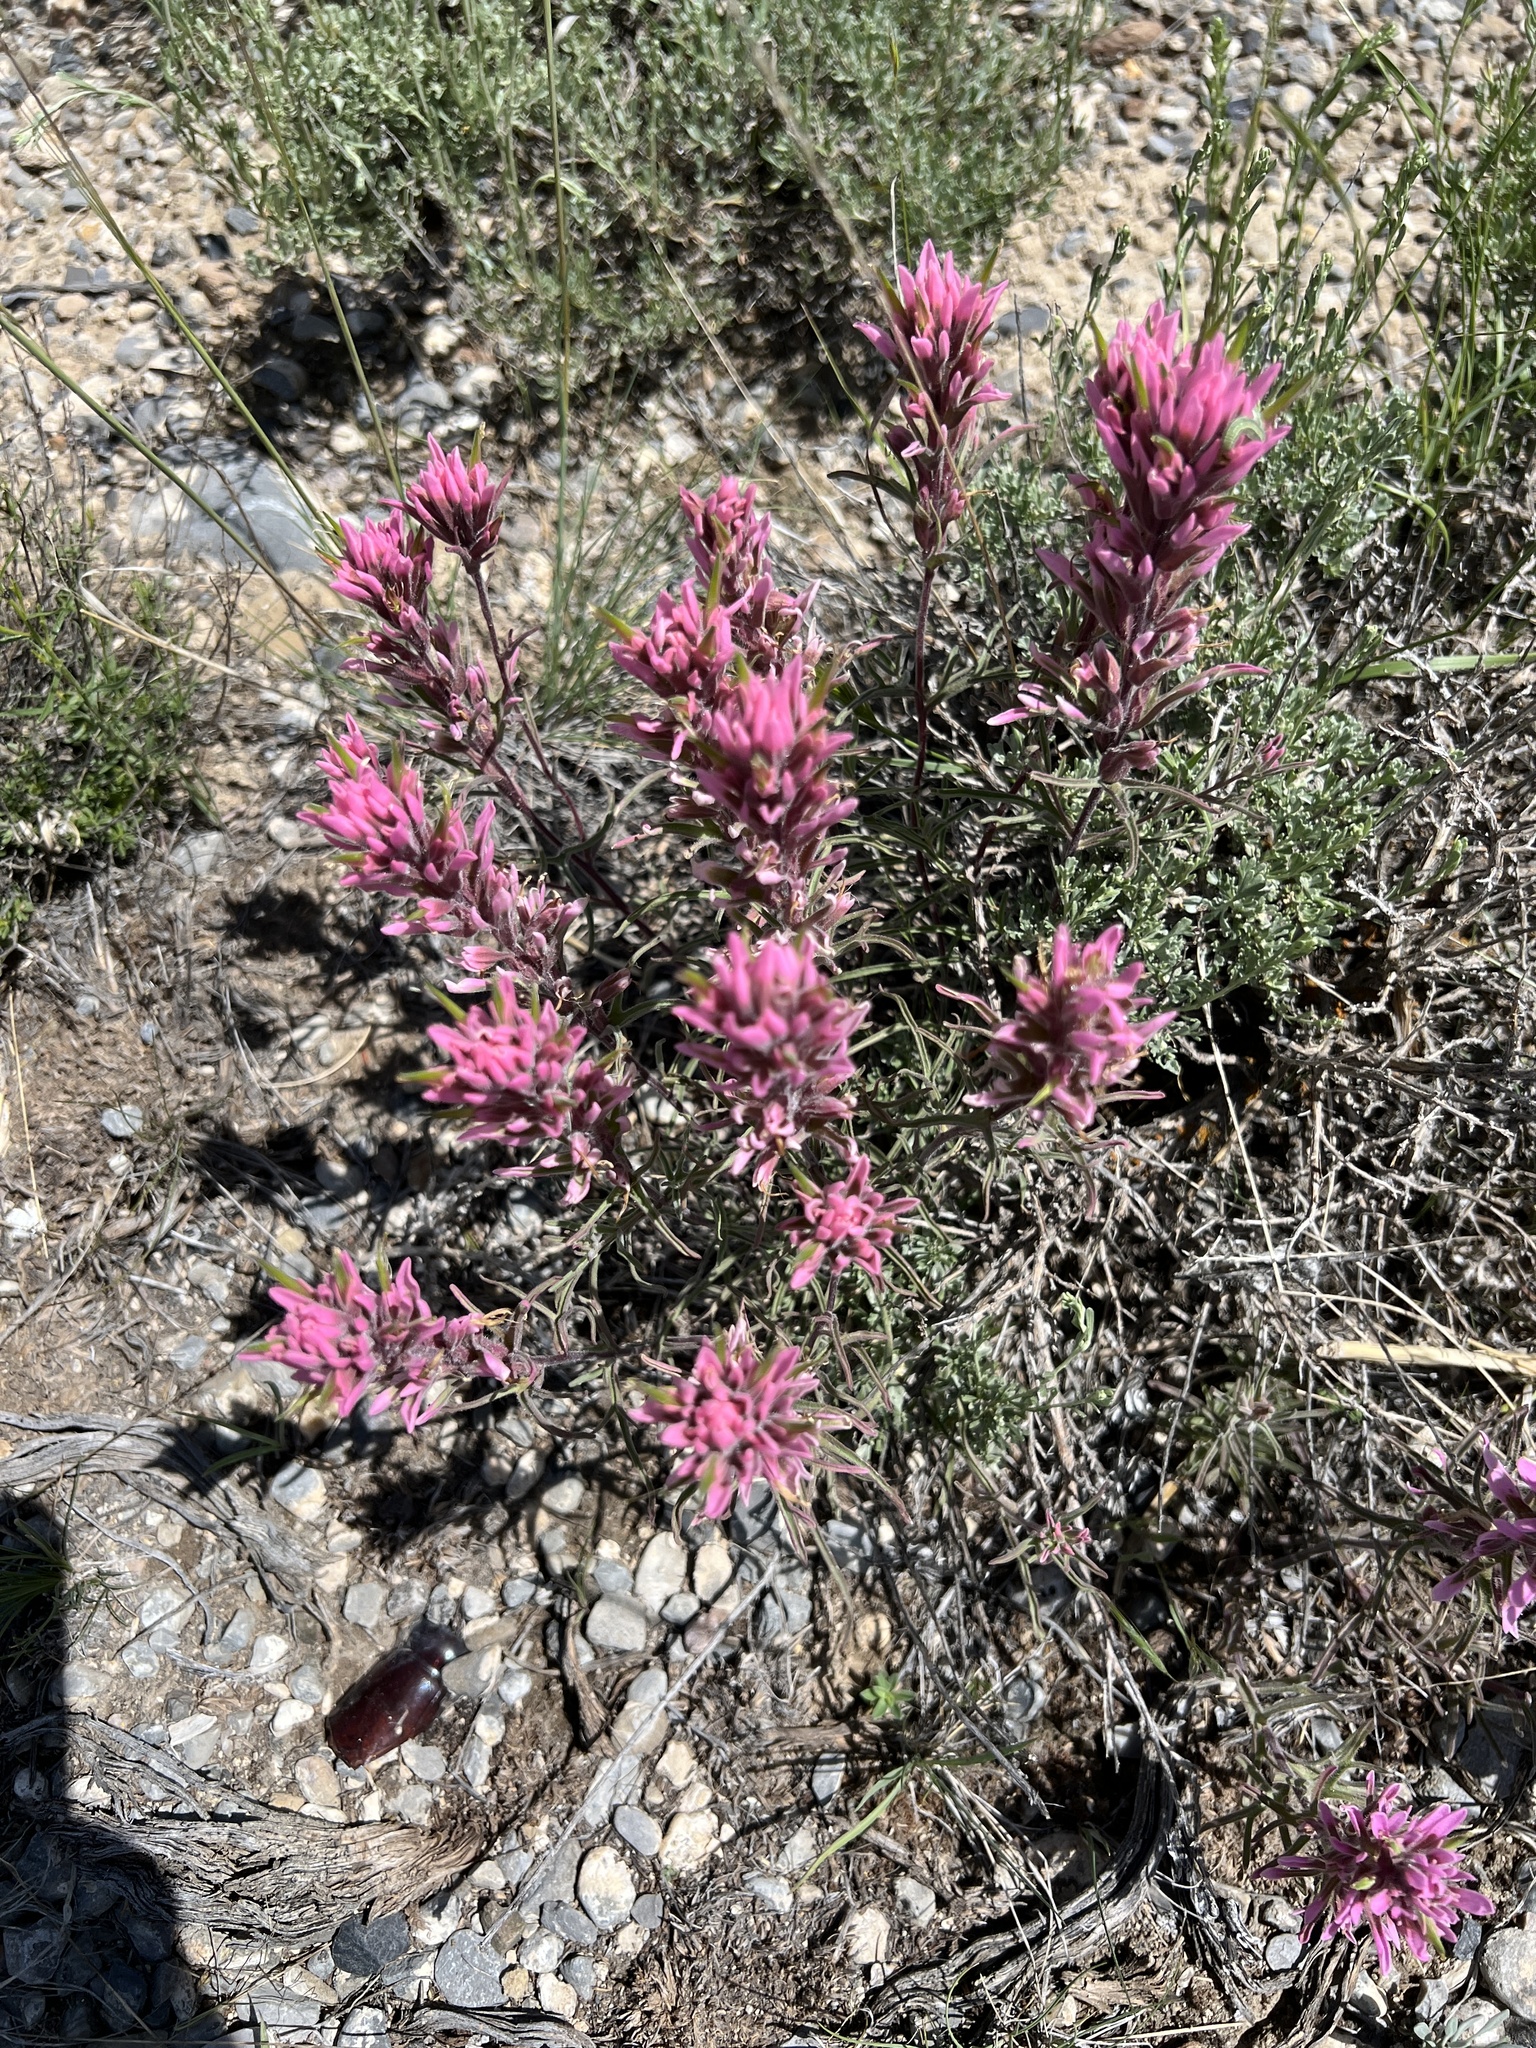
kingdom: Plantae
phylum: Tracheophyta
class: Magnoliopsida
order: Lamiales
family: Orobanchaceae
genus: Castilleja
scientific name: Castilleja angustifolia
